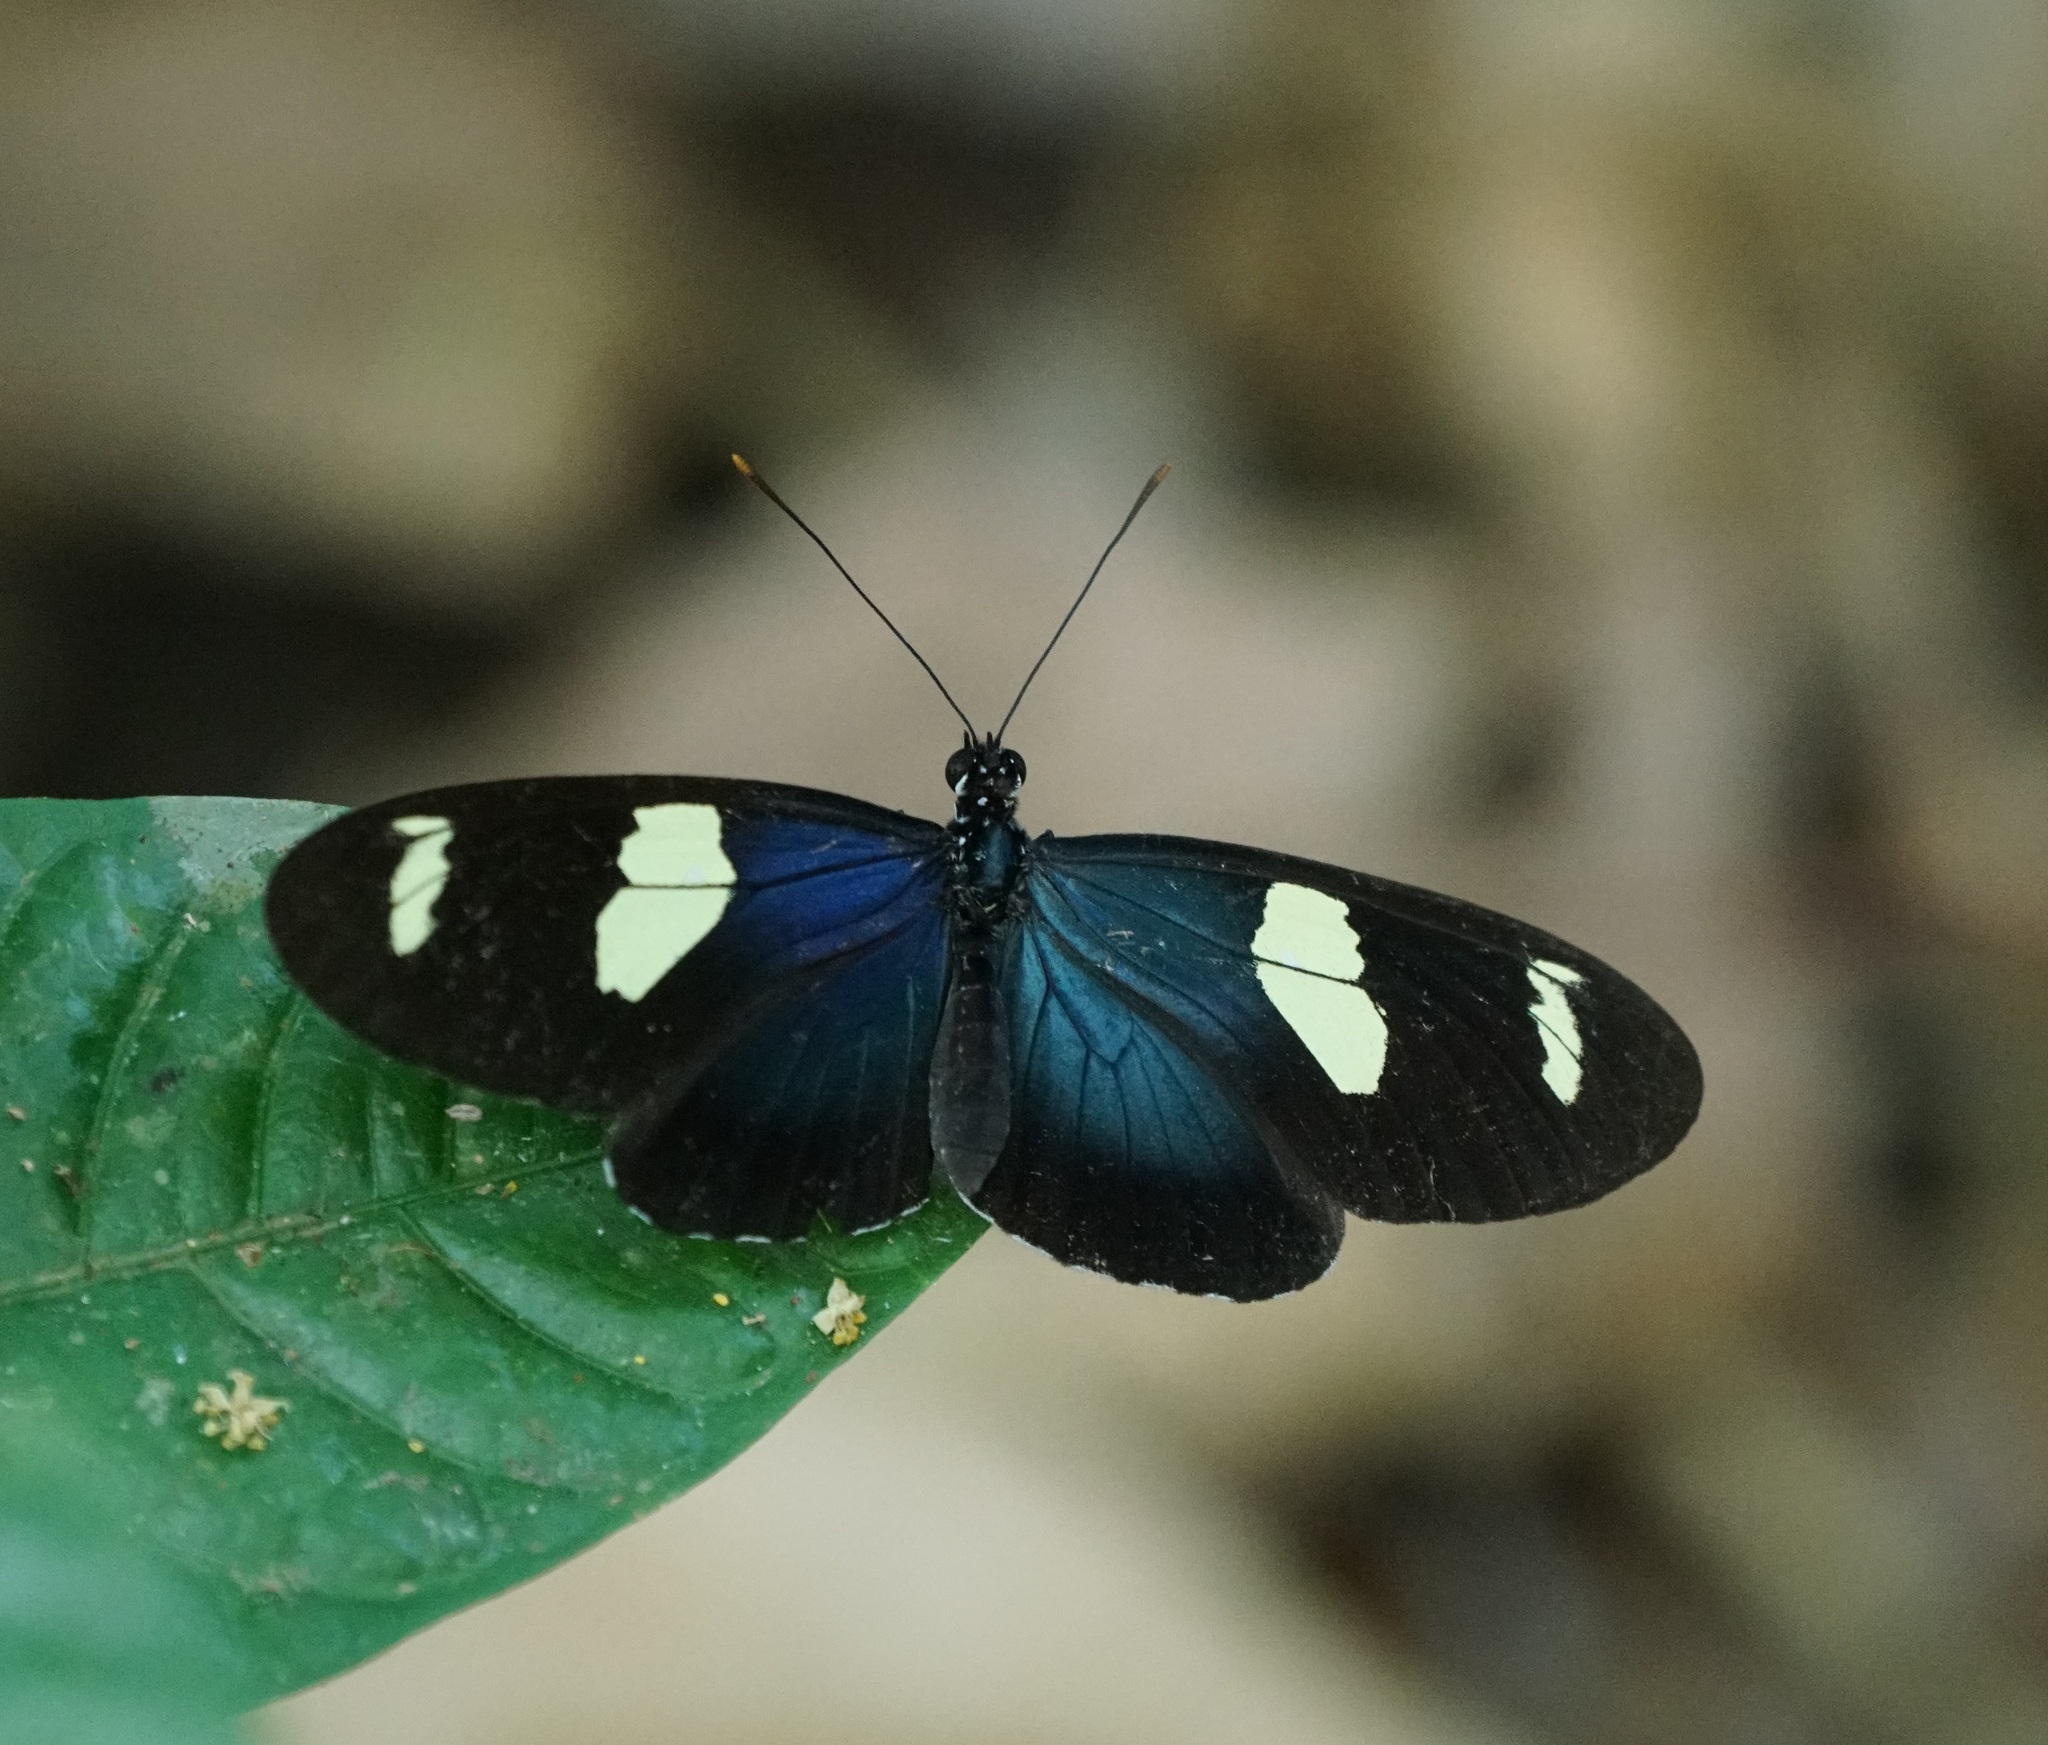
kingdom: Animalia
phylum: Arthropoda
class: Insecta
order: Lepidoptera
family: Nymphalidae
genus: Heliconius
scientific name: Heliconius leucadia
